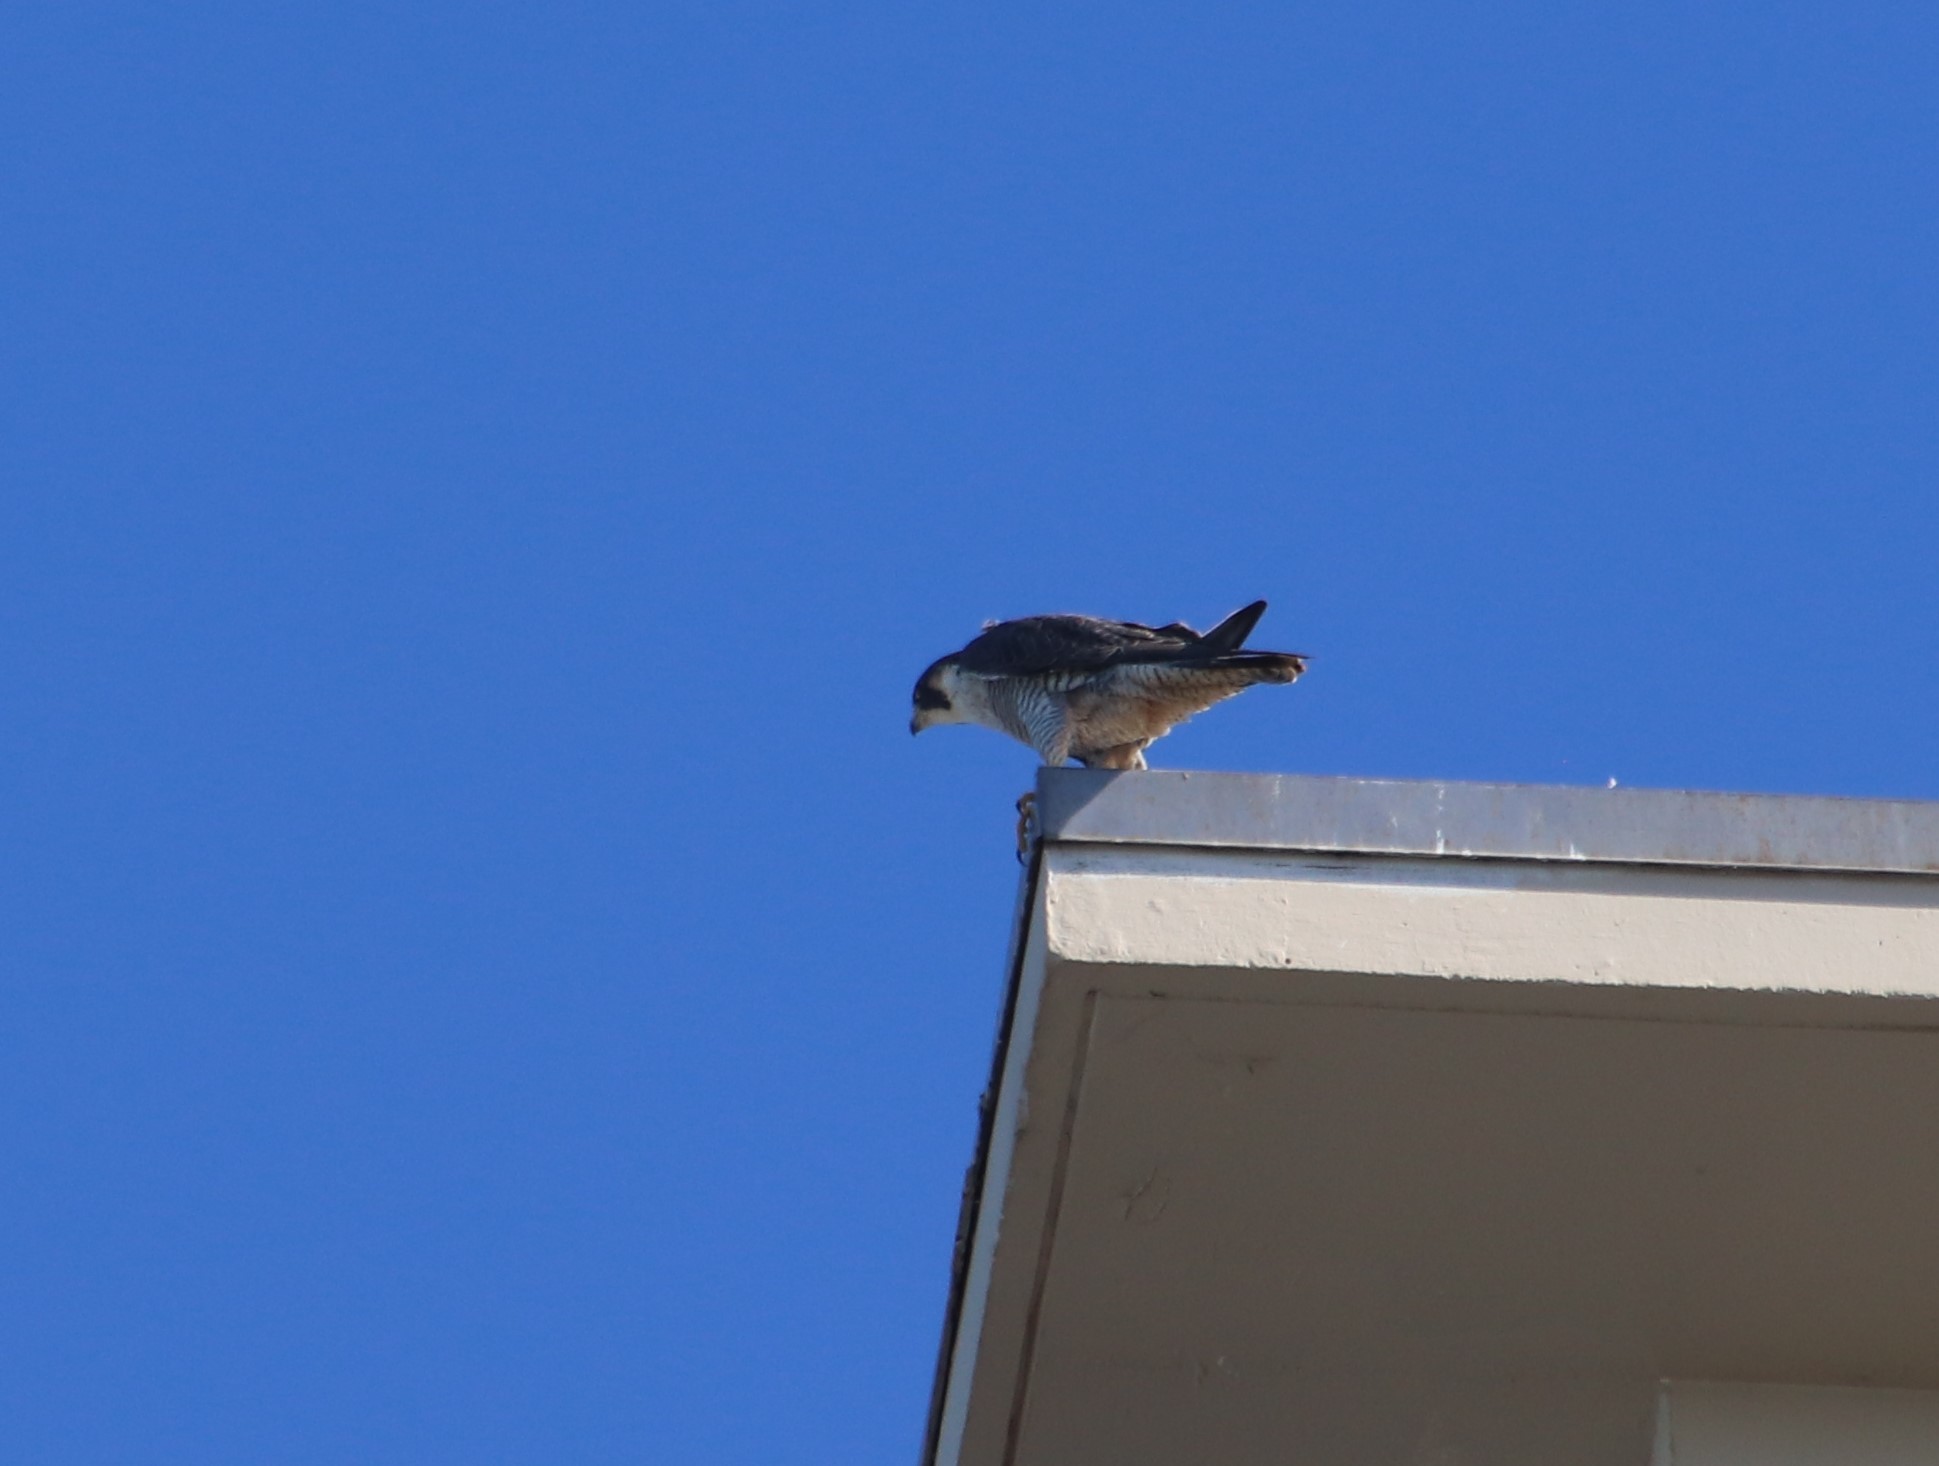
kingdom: Animalia
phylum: Chordata
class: Aves
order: Falconiformes
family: Falconidae
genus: Falco
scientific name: Falco peregrinus
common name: Peregrine falcon
